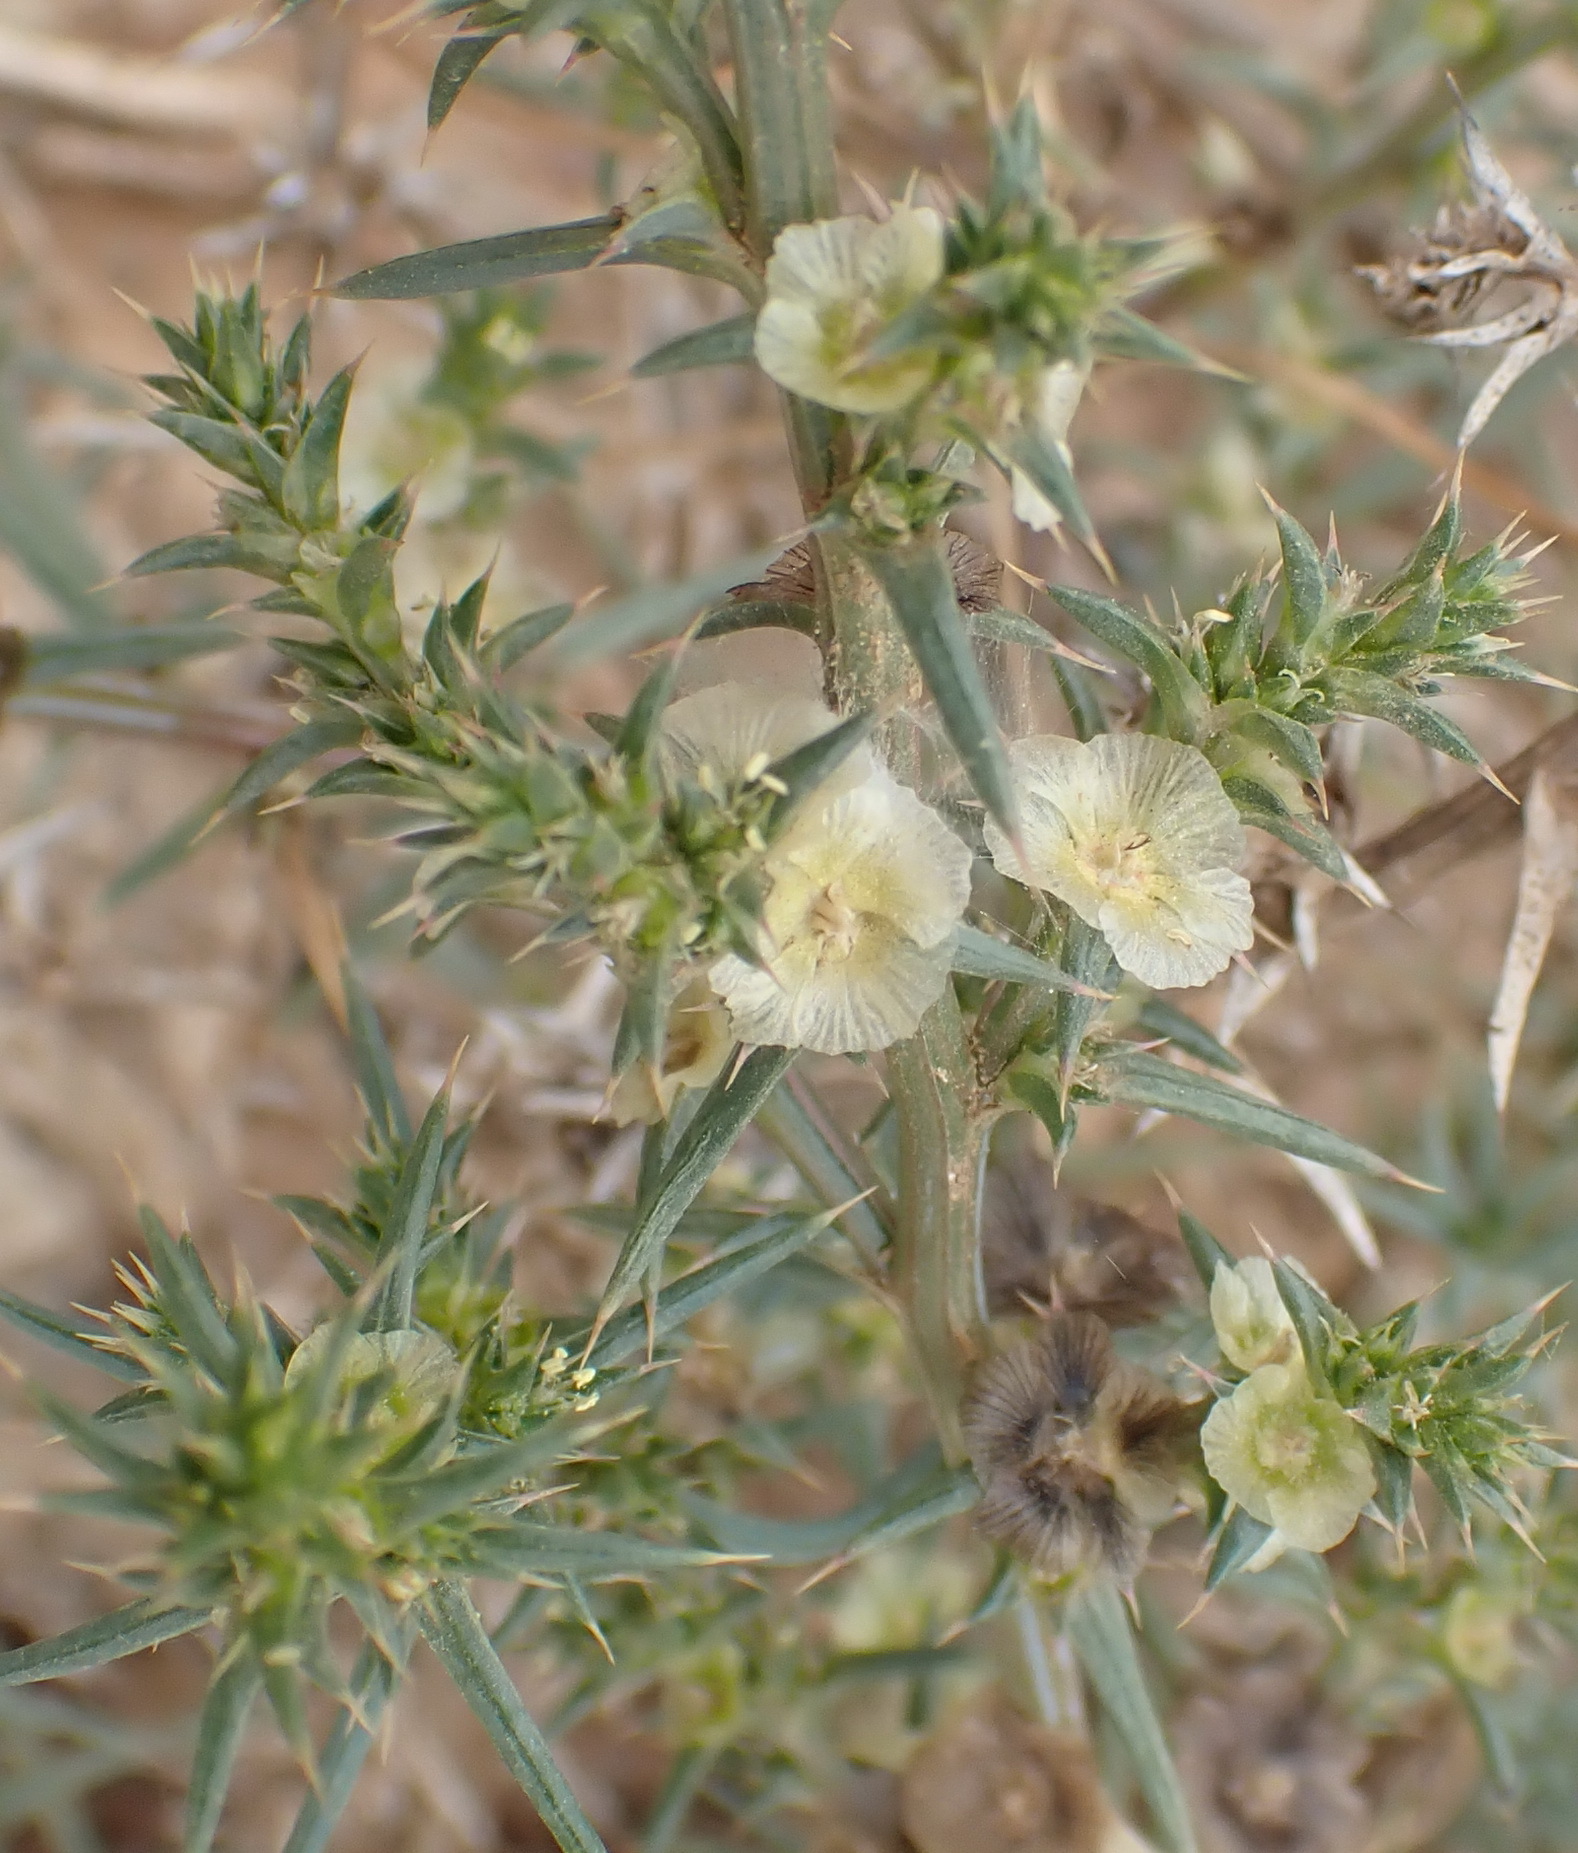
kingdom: Plantae
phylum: Tracheophyta
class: Magnoliopsida
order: Caryophyllales
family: Amaranthaceae
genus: Salsola
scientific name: Salsola kali
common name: Saltwort
